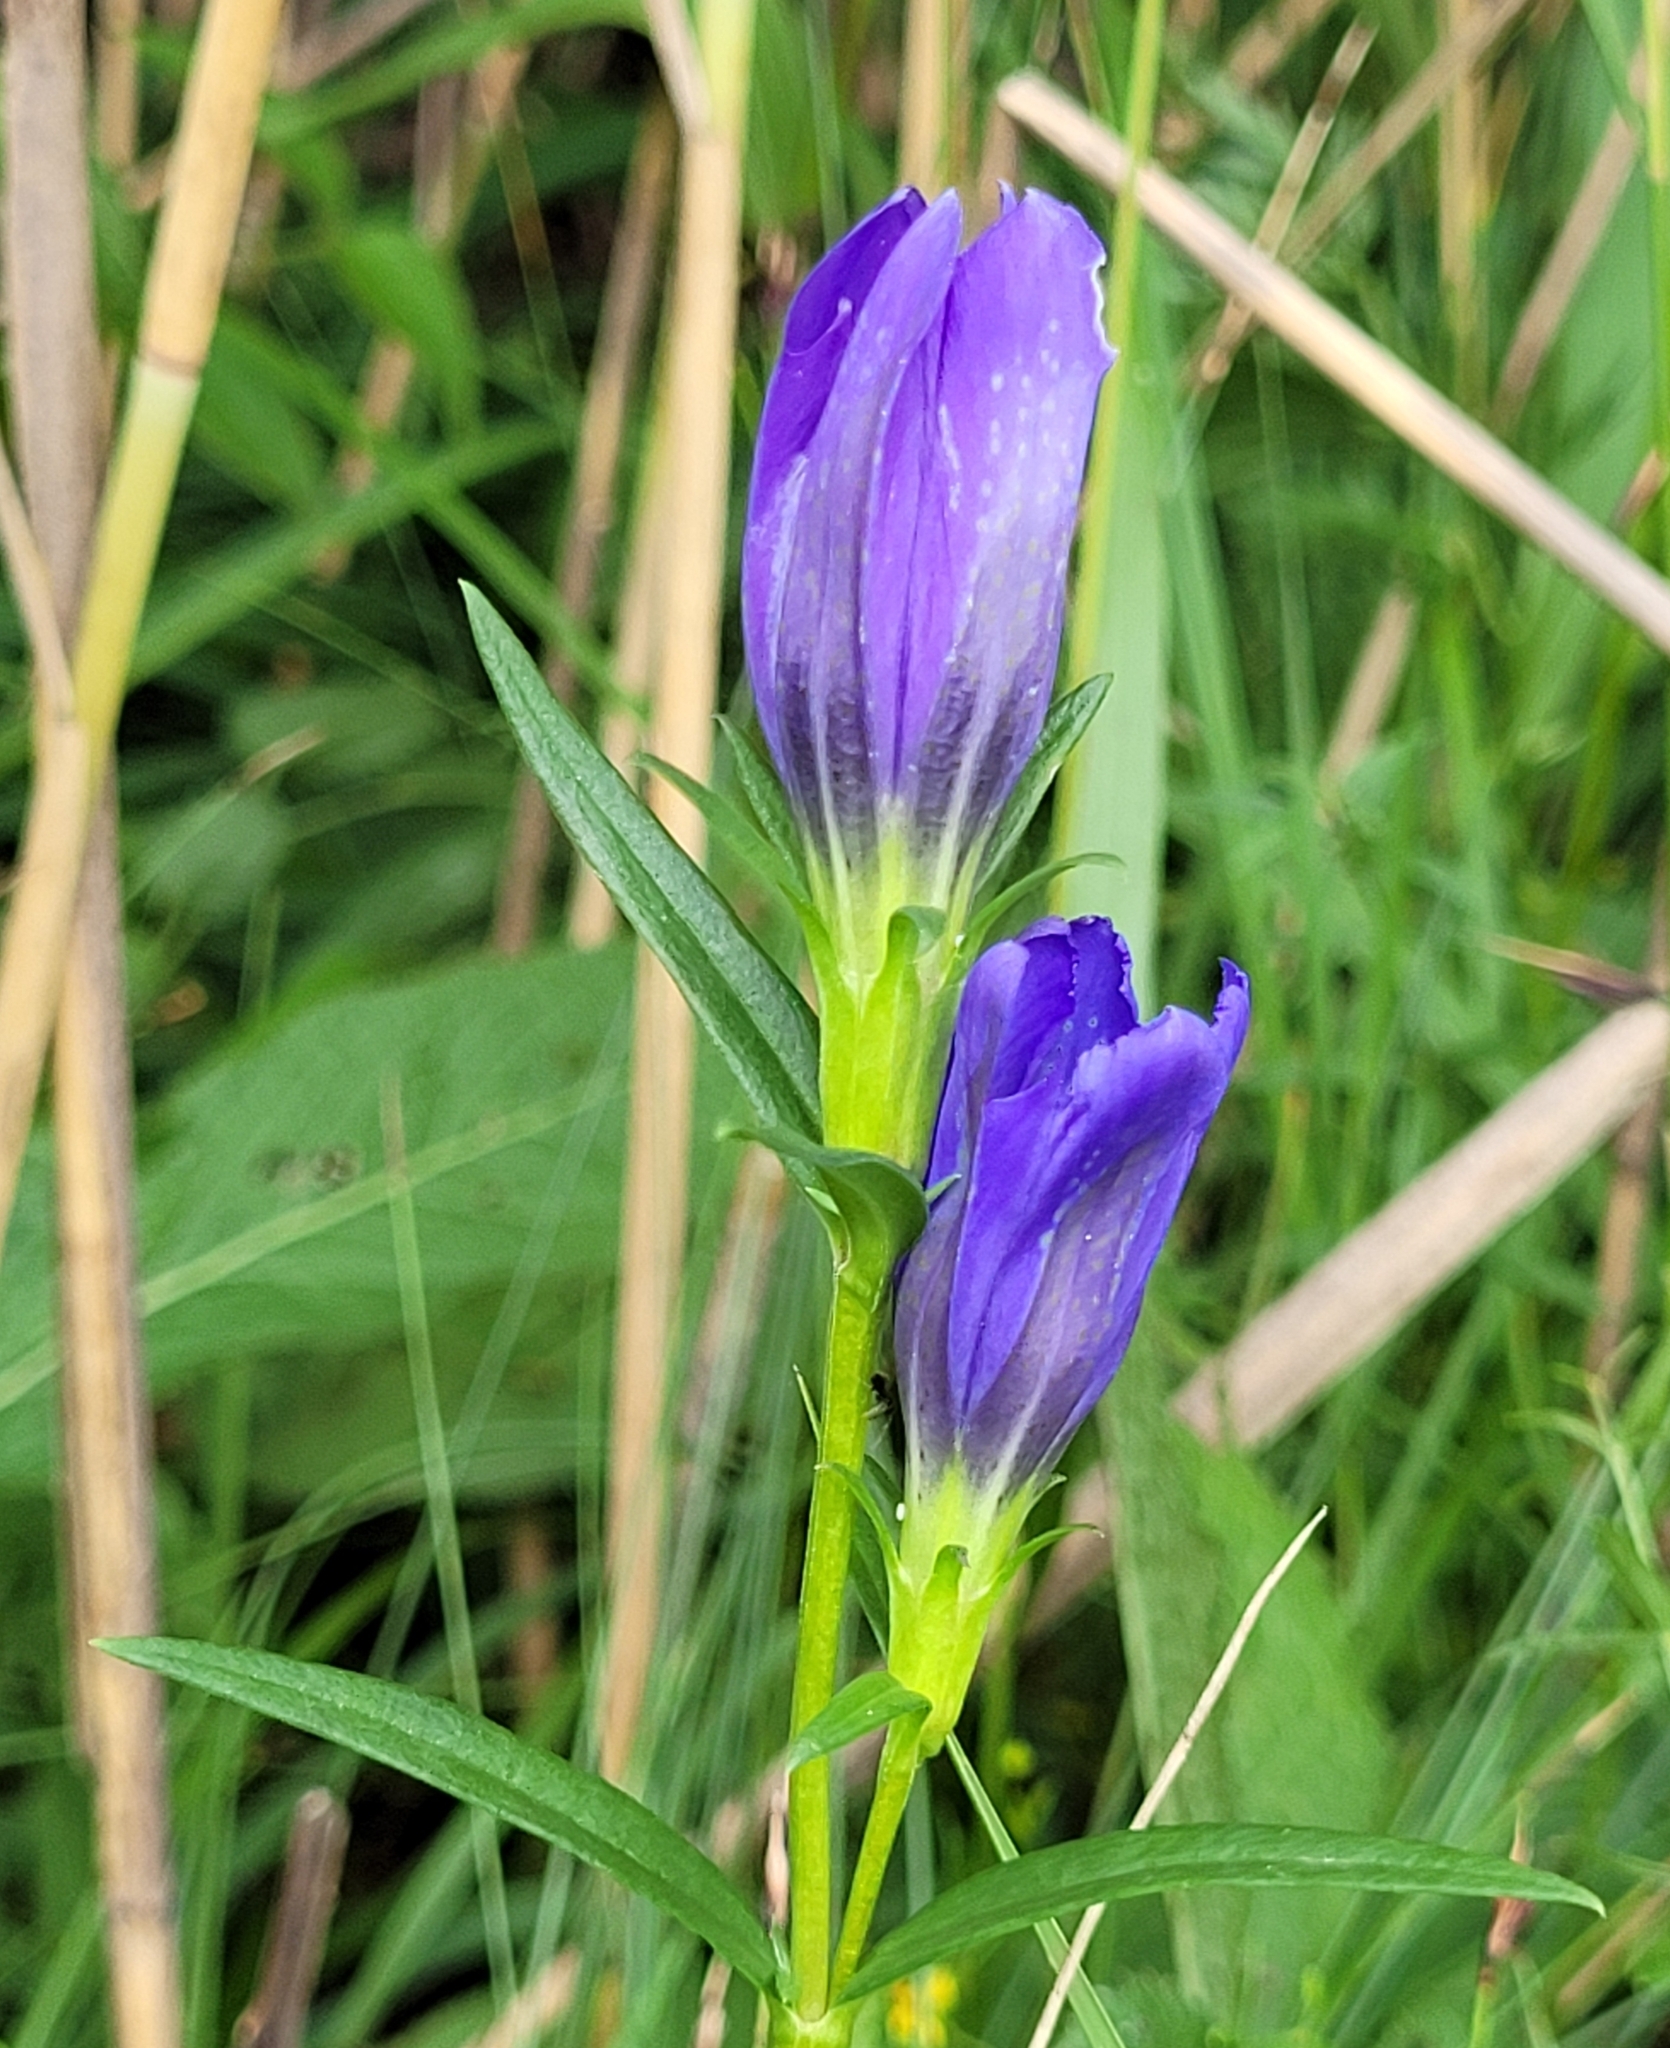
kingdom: Plantae
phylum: Tracheophyta
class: Magnoliopsida
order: Gentianales
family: Gentianaceae
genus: Gentiana
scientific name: Gentiana pneumonanthe
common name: Marsh gentian
